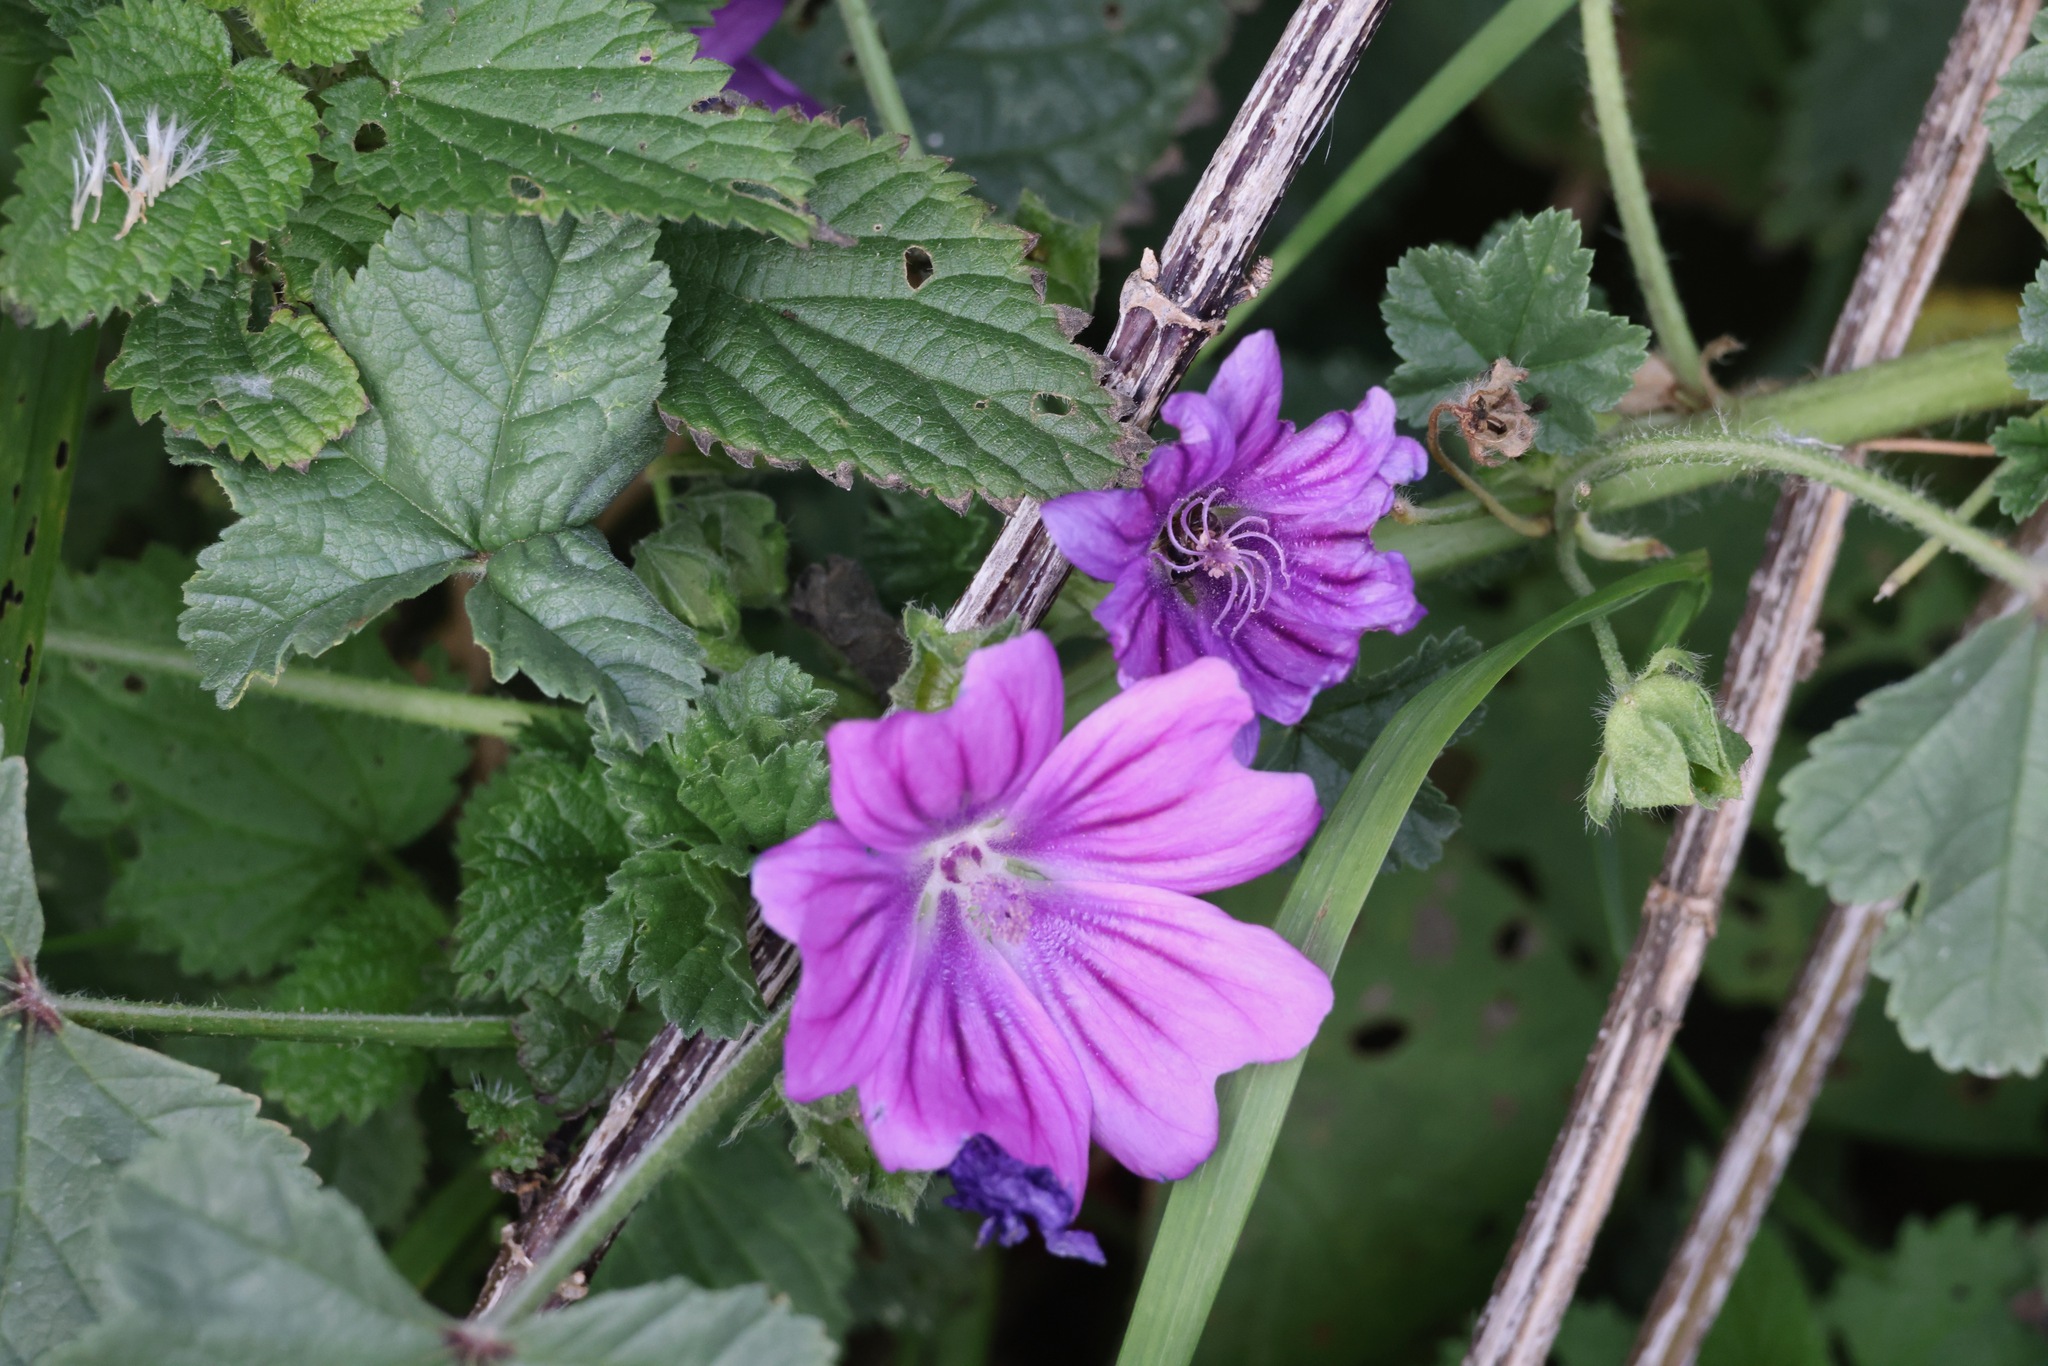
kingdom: Plantae
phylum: Tracheophyta
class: Magnoliopsida
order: Malvales
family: Malvaceae
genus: Malva
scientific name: Malva sylvestris
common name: Common mallow
